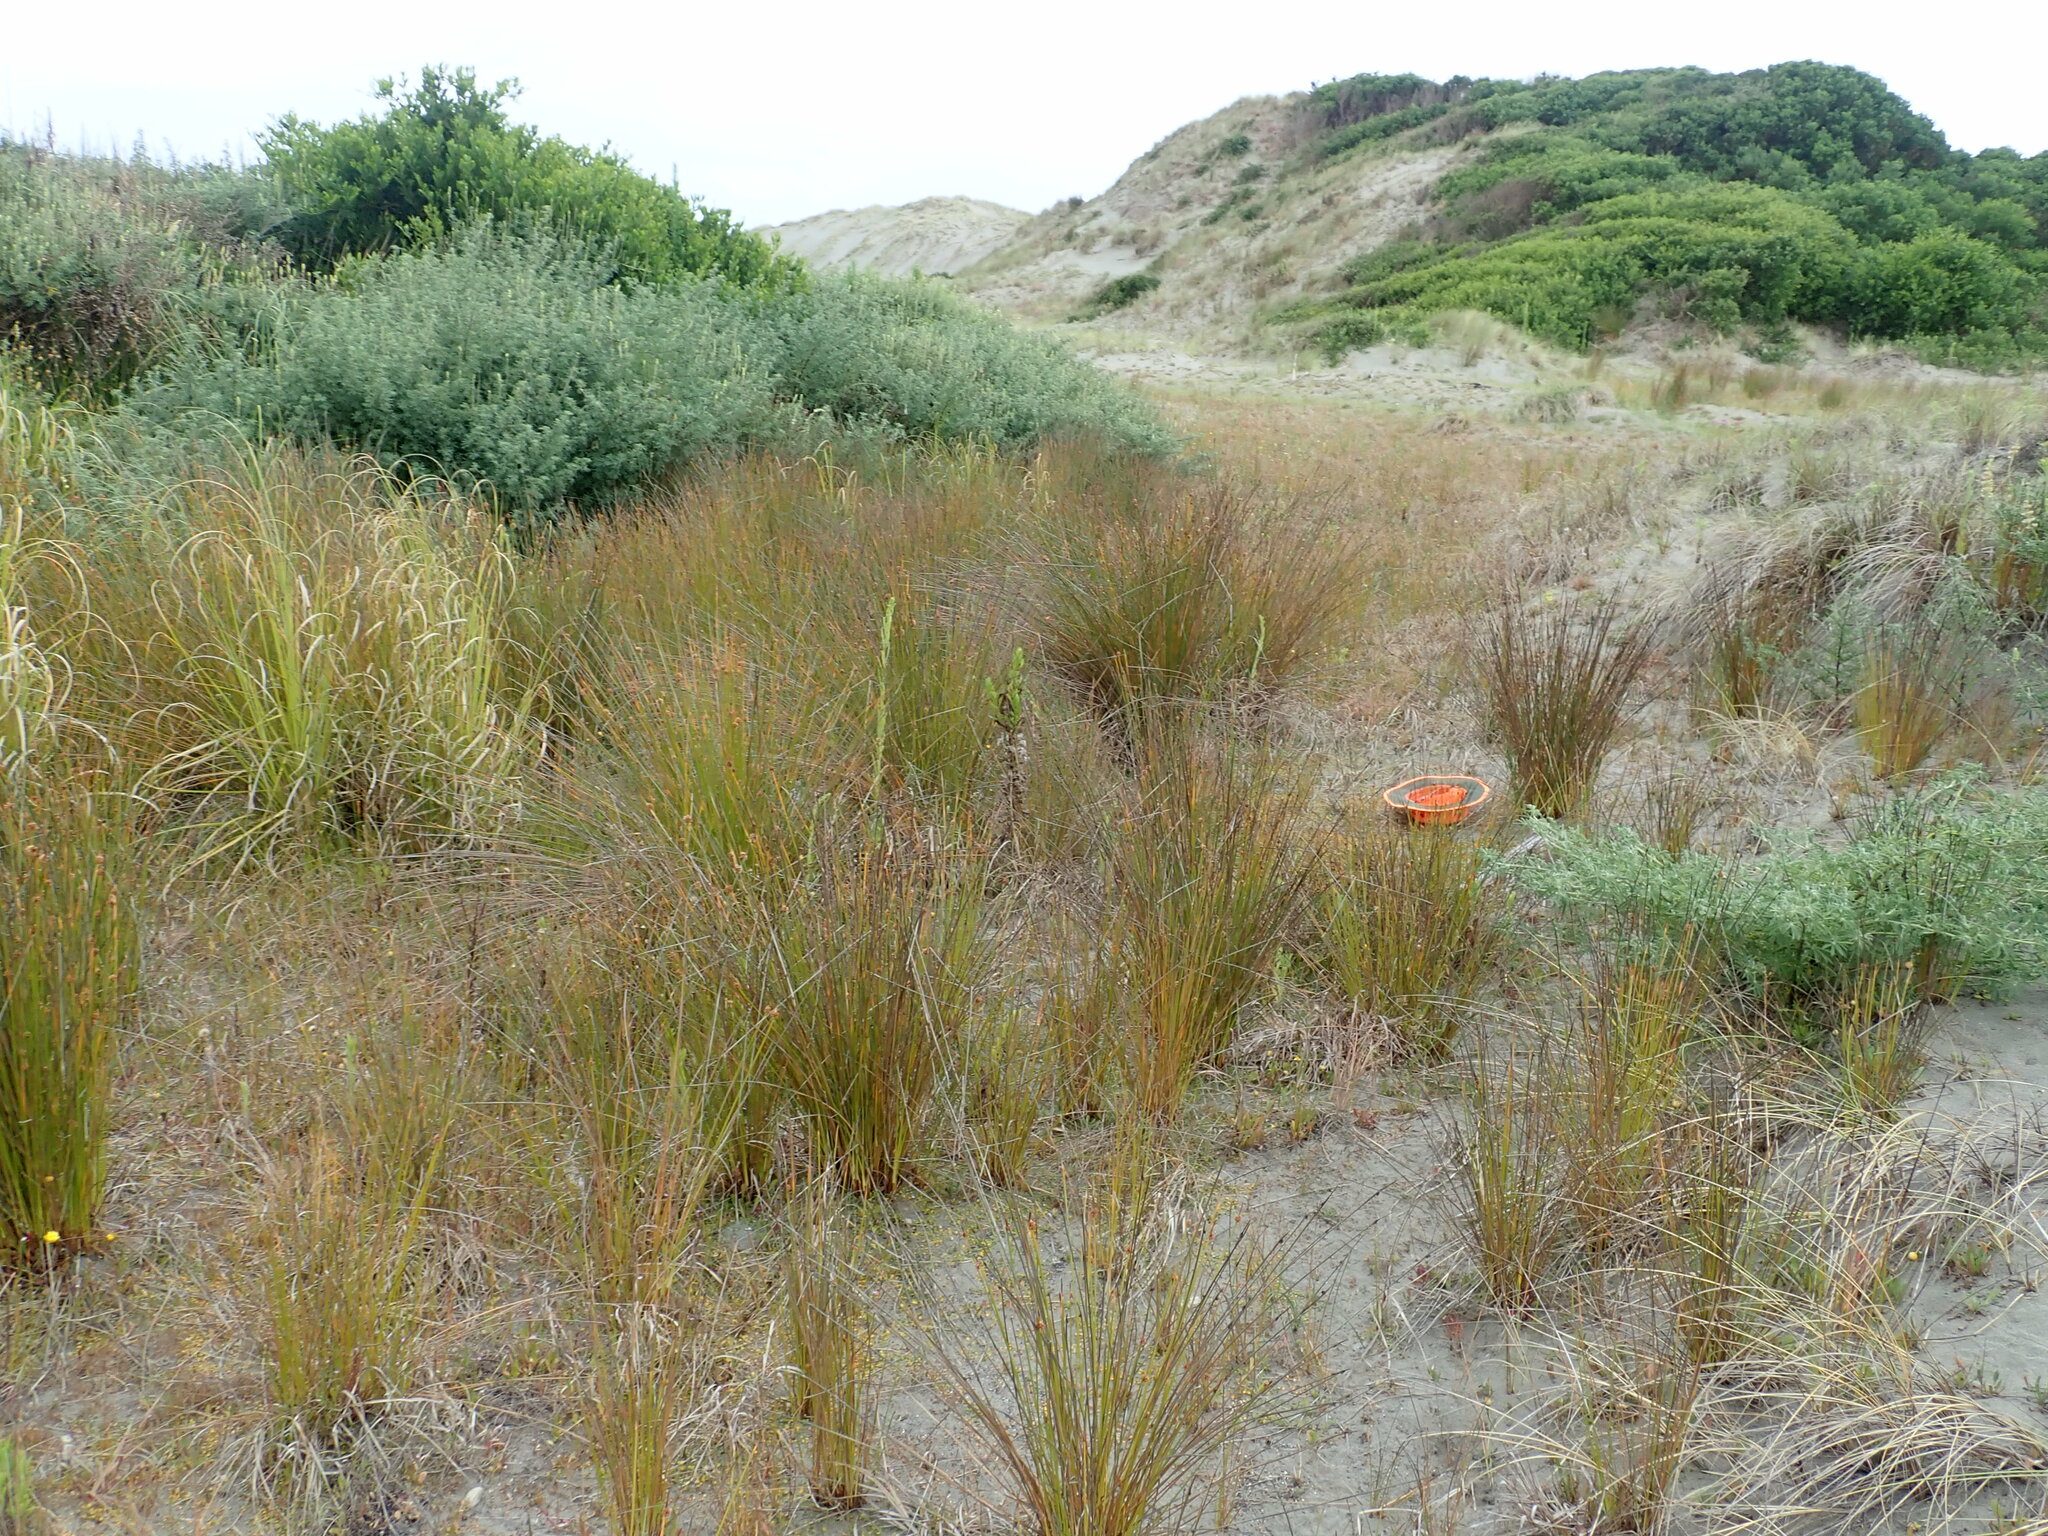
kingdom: Plantae
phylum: Tracheophyta
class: Magnoliopsida
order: Asterales
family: Goodeniaceae
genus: Goodenia
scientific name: Goodenia heenanii
